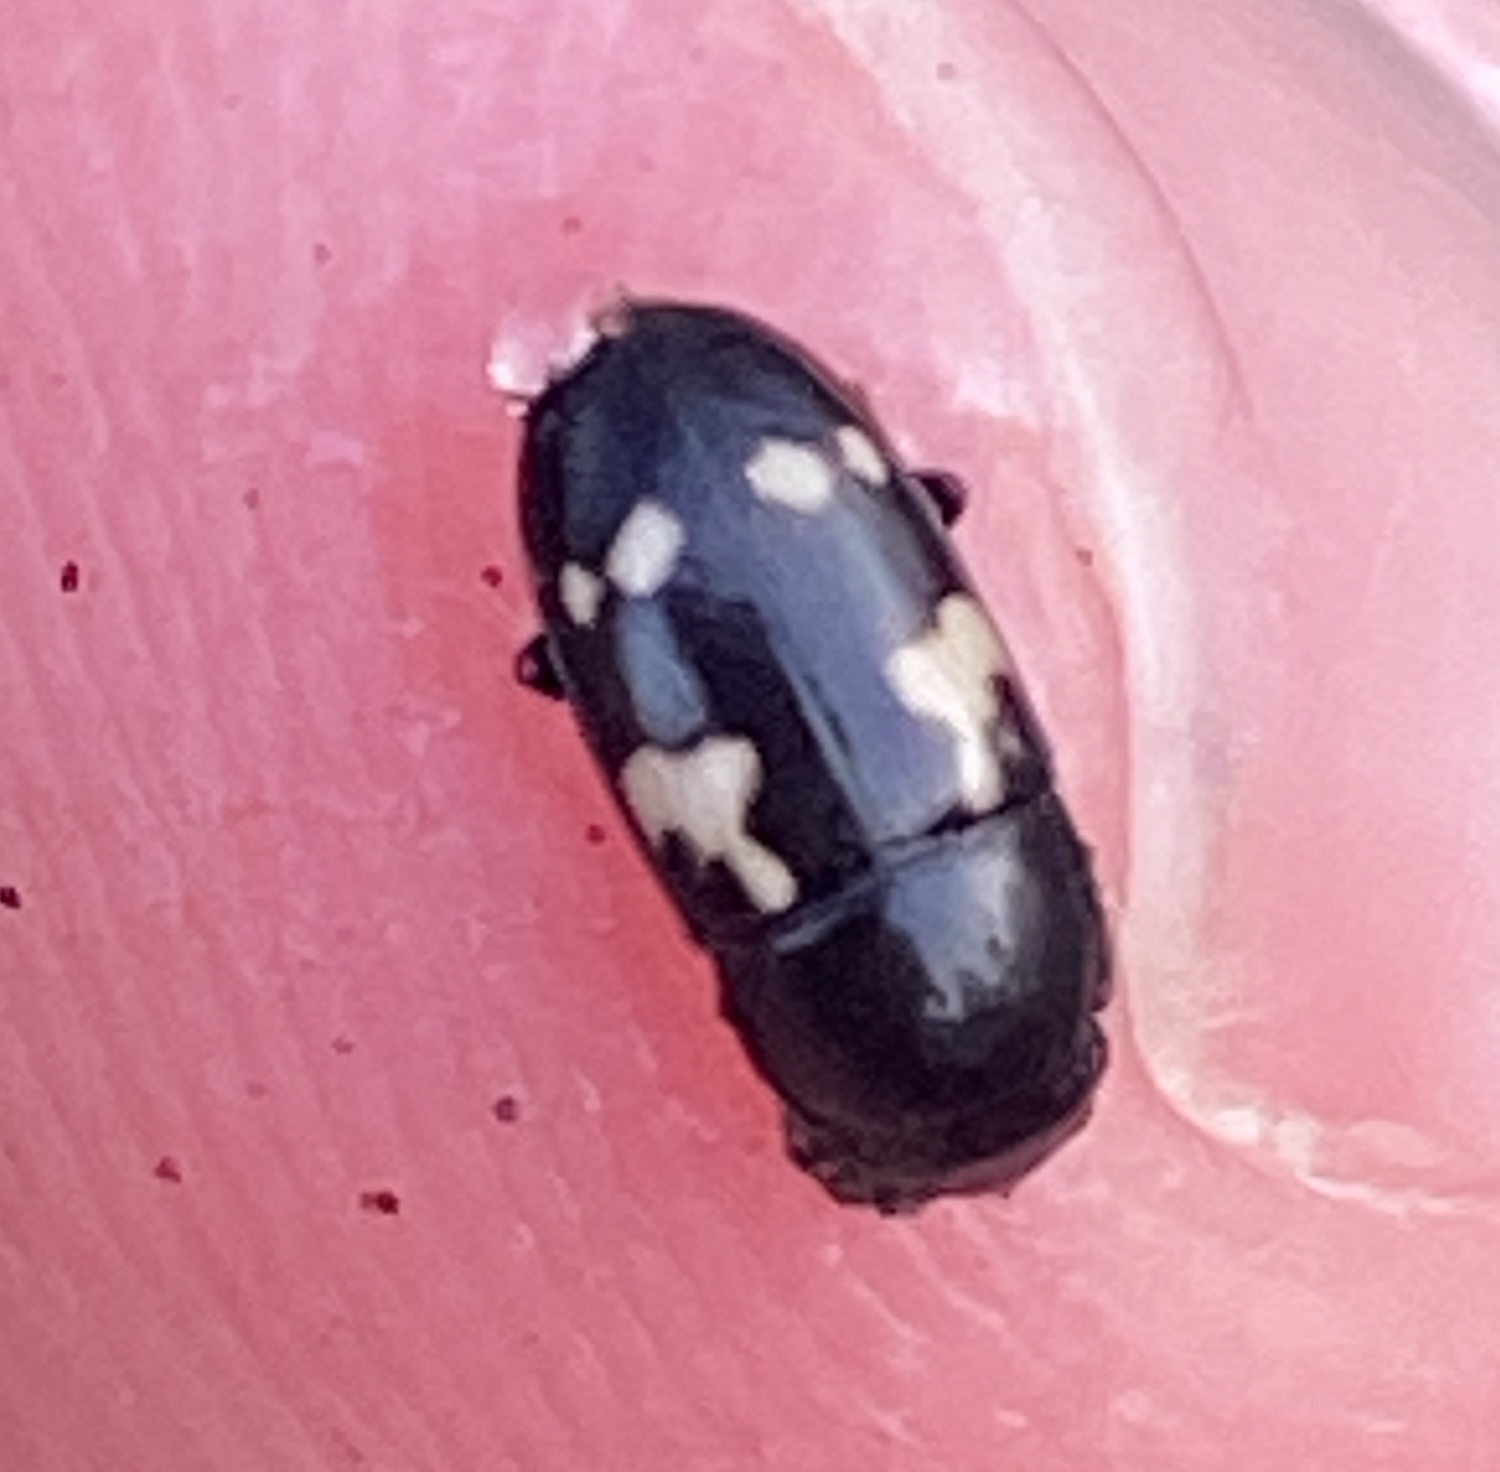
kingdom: Animalia
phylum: Arthropoda
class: Insecta
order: Coleoptera
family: Nitidulidae
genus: Glischrochilus
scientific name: Glischrochilus quadriguttatus
